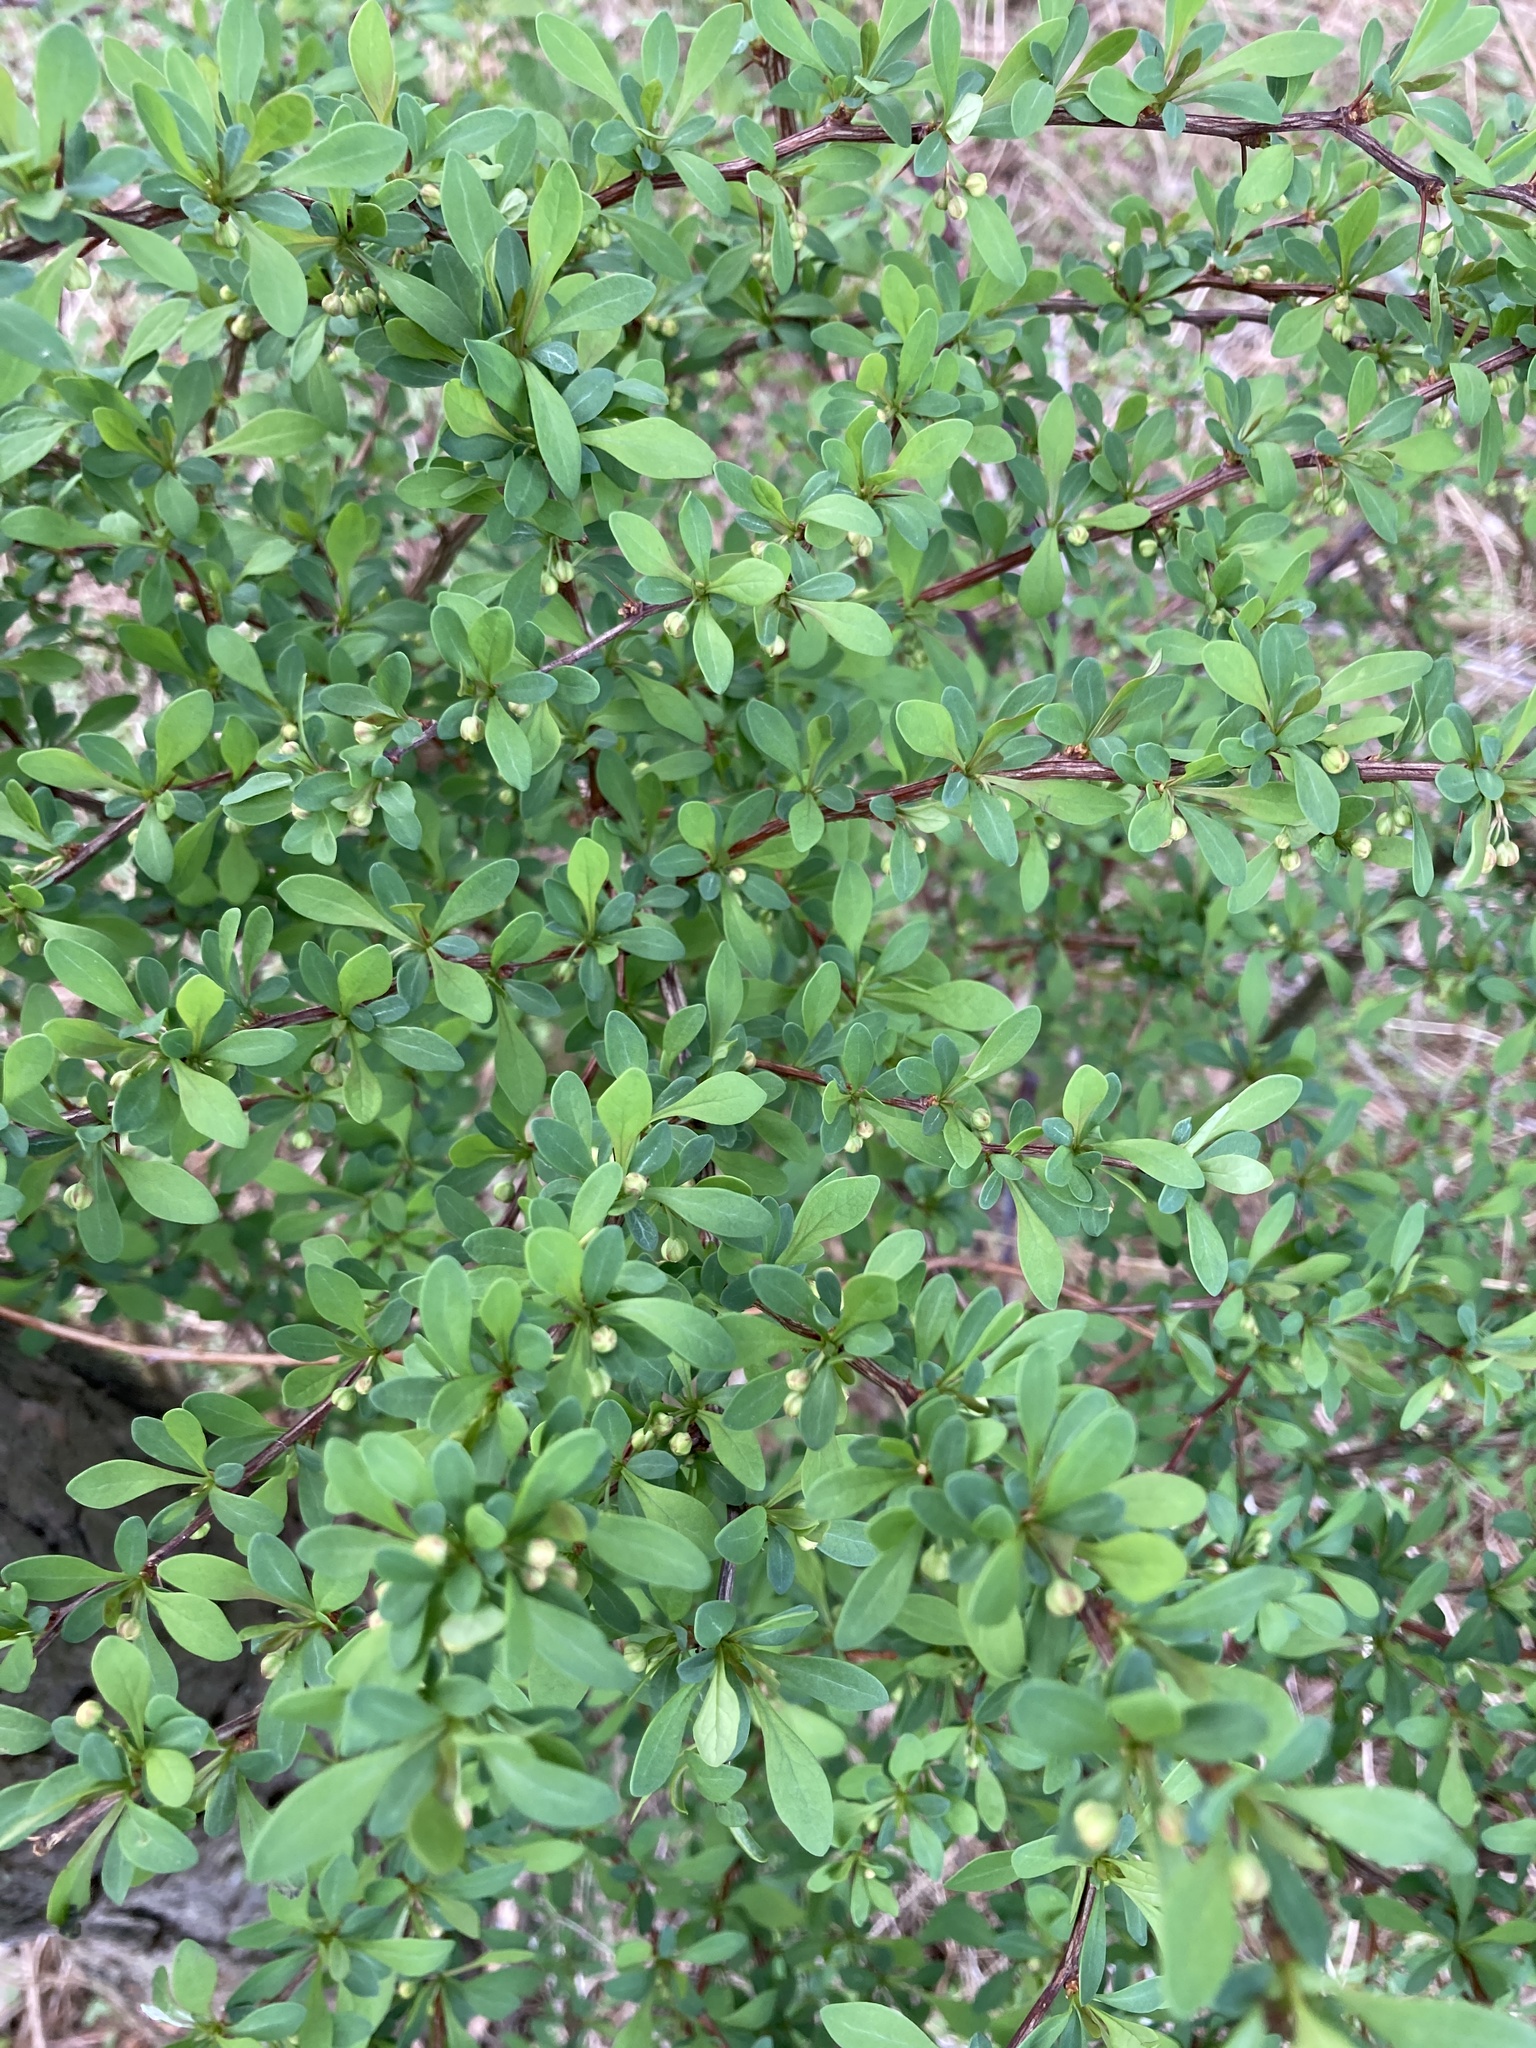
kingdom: Plantae
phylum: Tracheophyta
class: Magnoliopsida
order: Ranunculales
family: Berberidaceae
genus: Berberis
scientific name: Berberis thunbergii
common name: Japanese barberry
